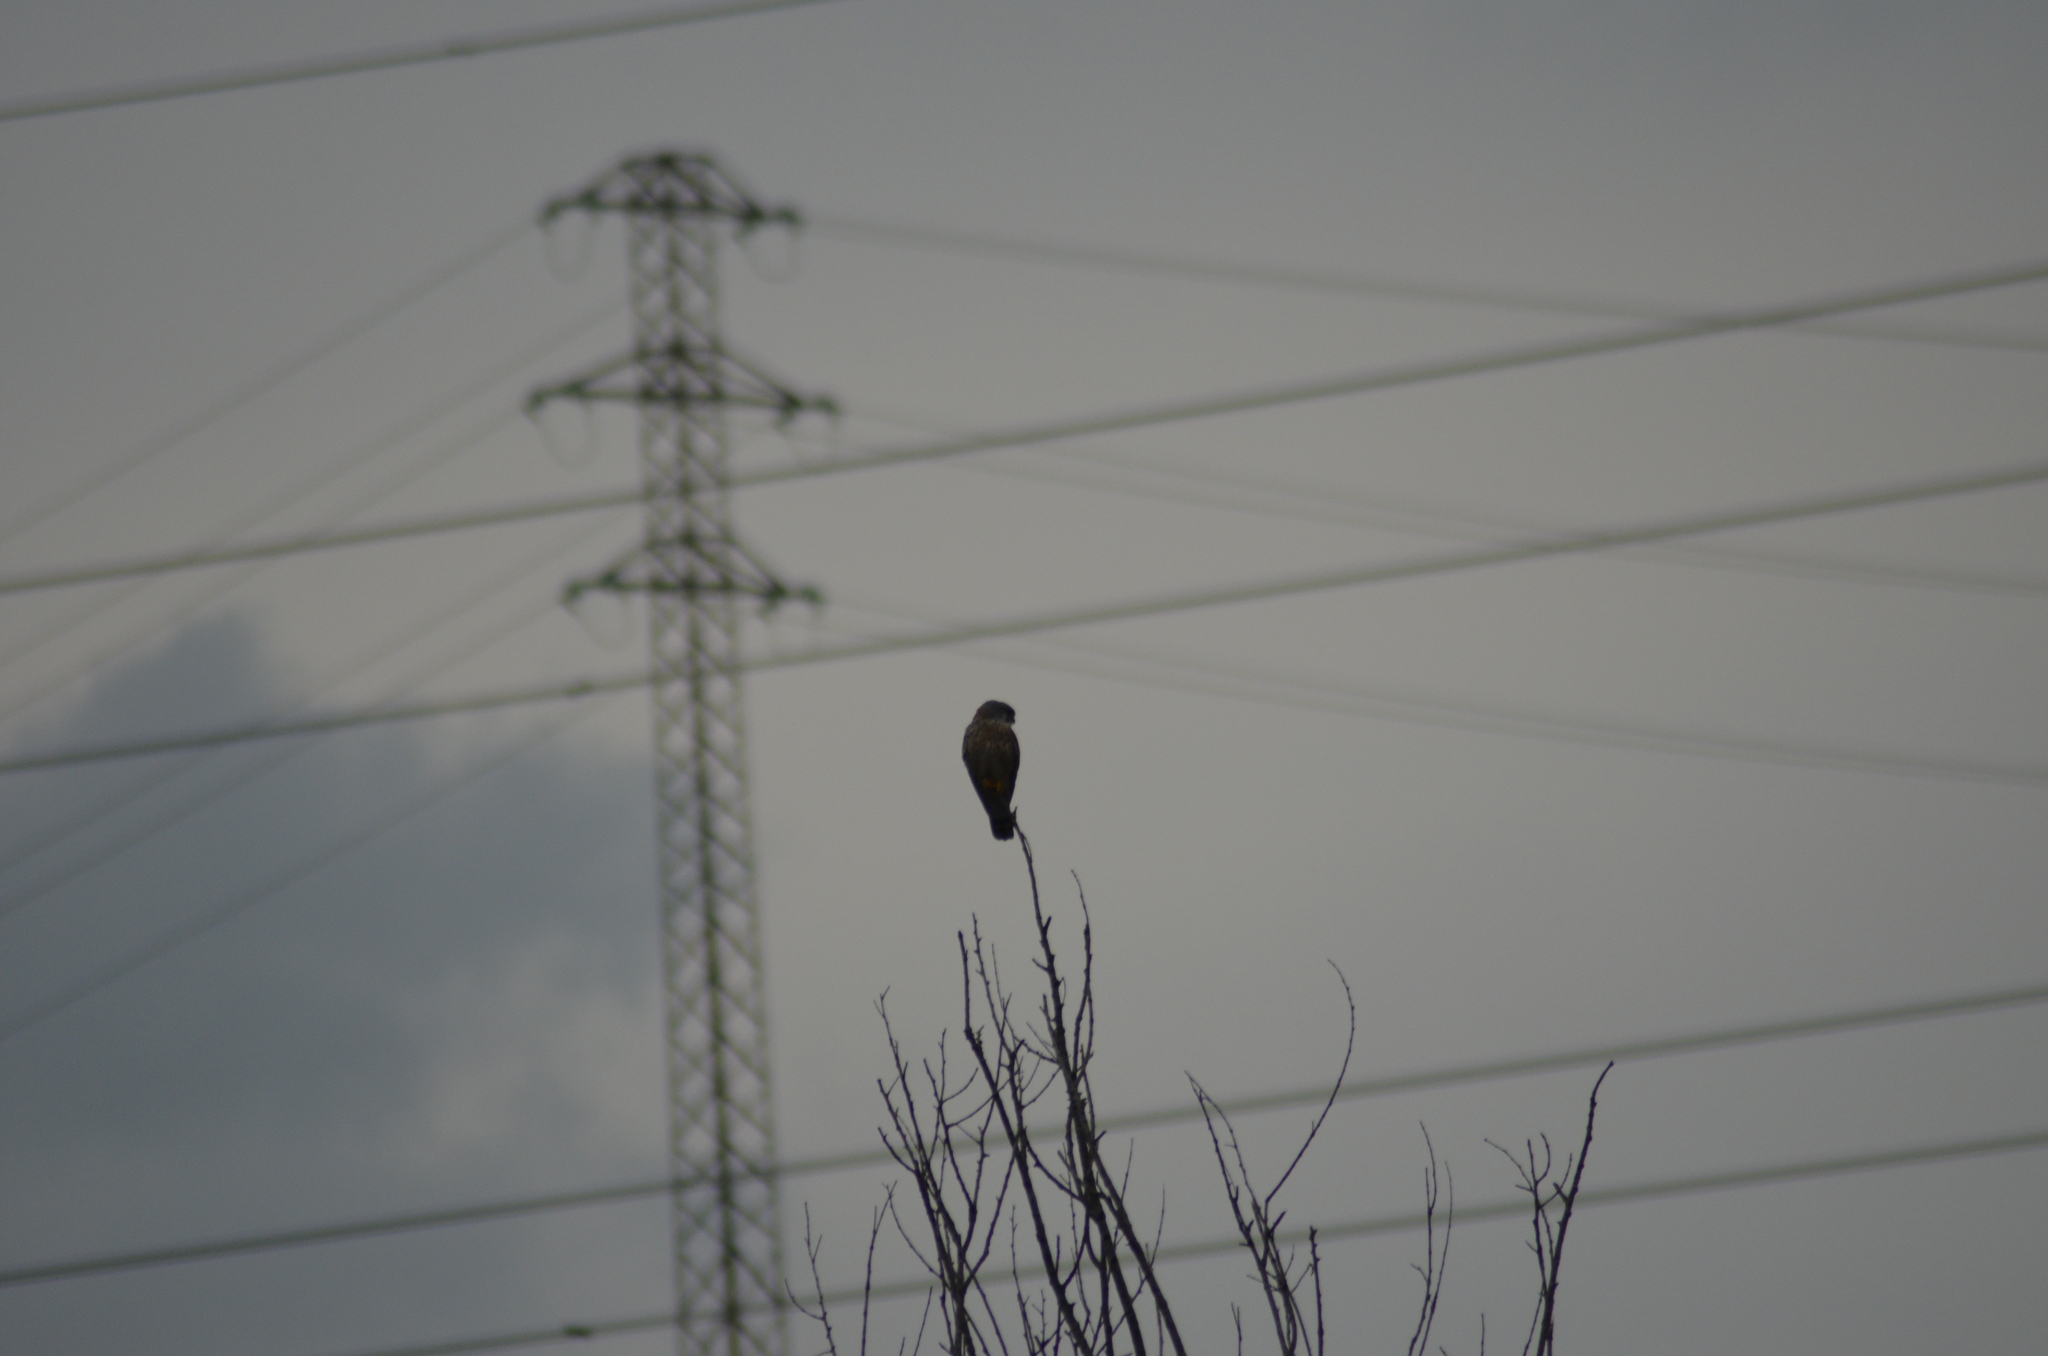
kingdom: Animalia
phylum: Chordata
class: Aves
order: Falconiformes
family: Falconidae
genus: Falco
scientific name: Falco tinnunculus
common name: Common kestrel
